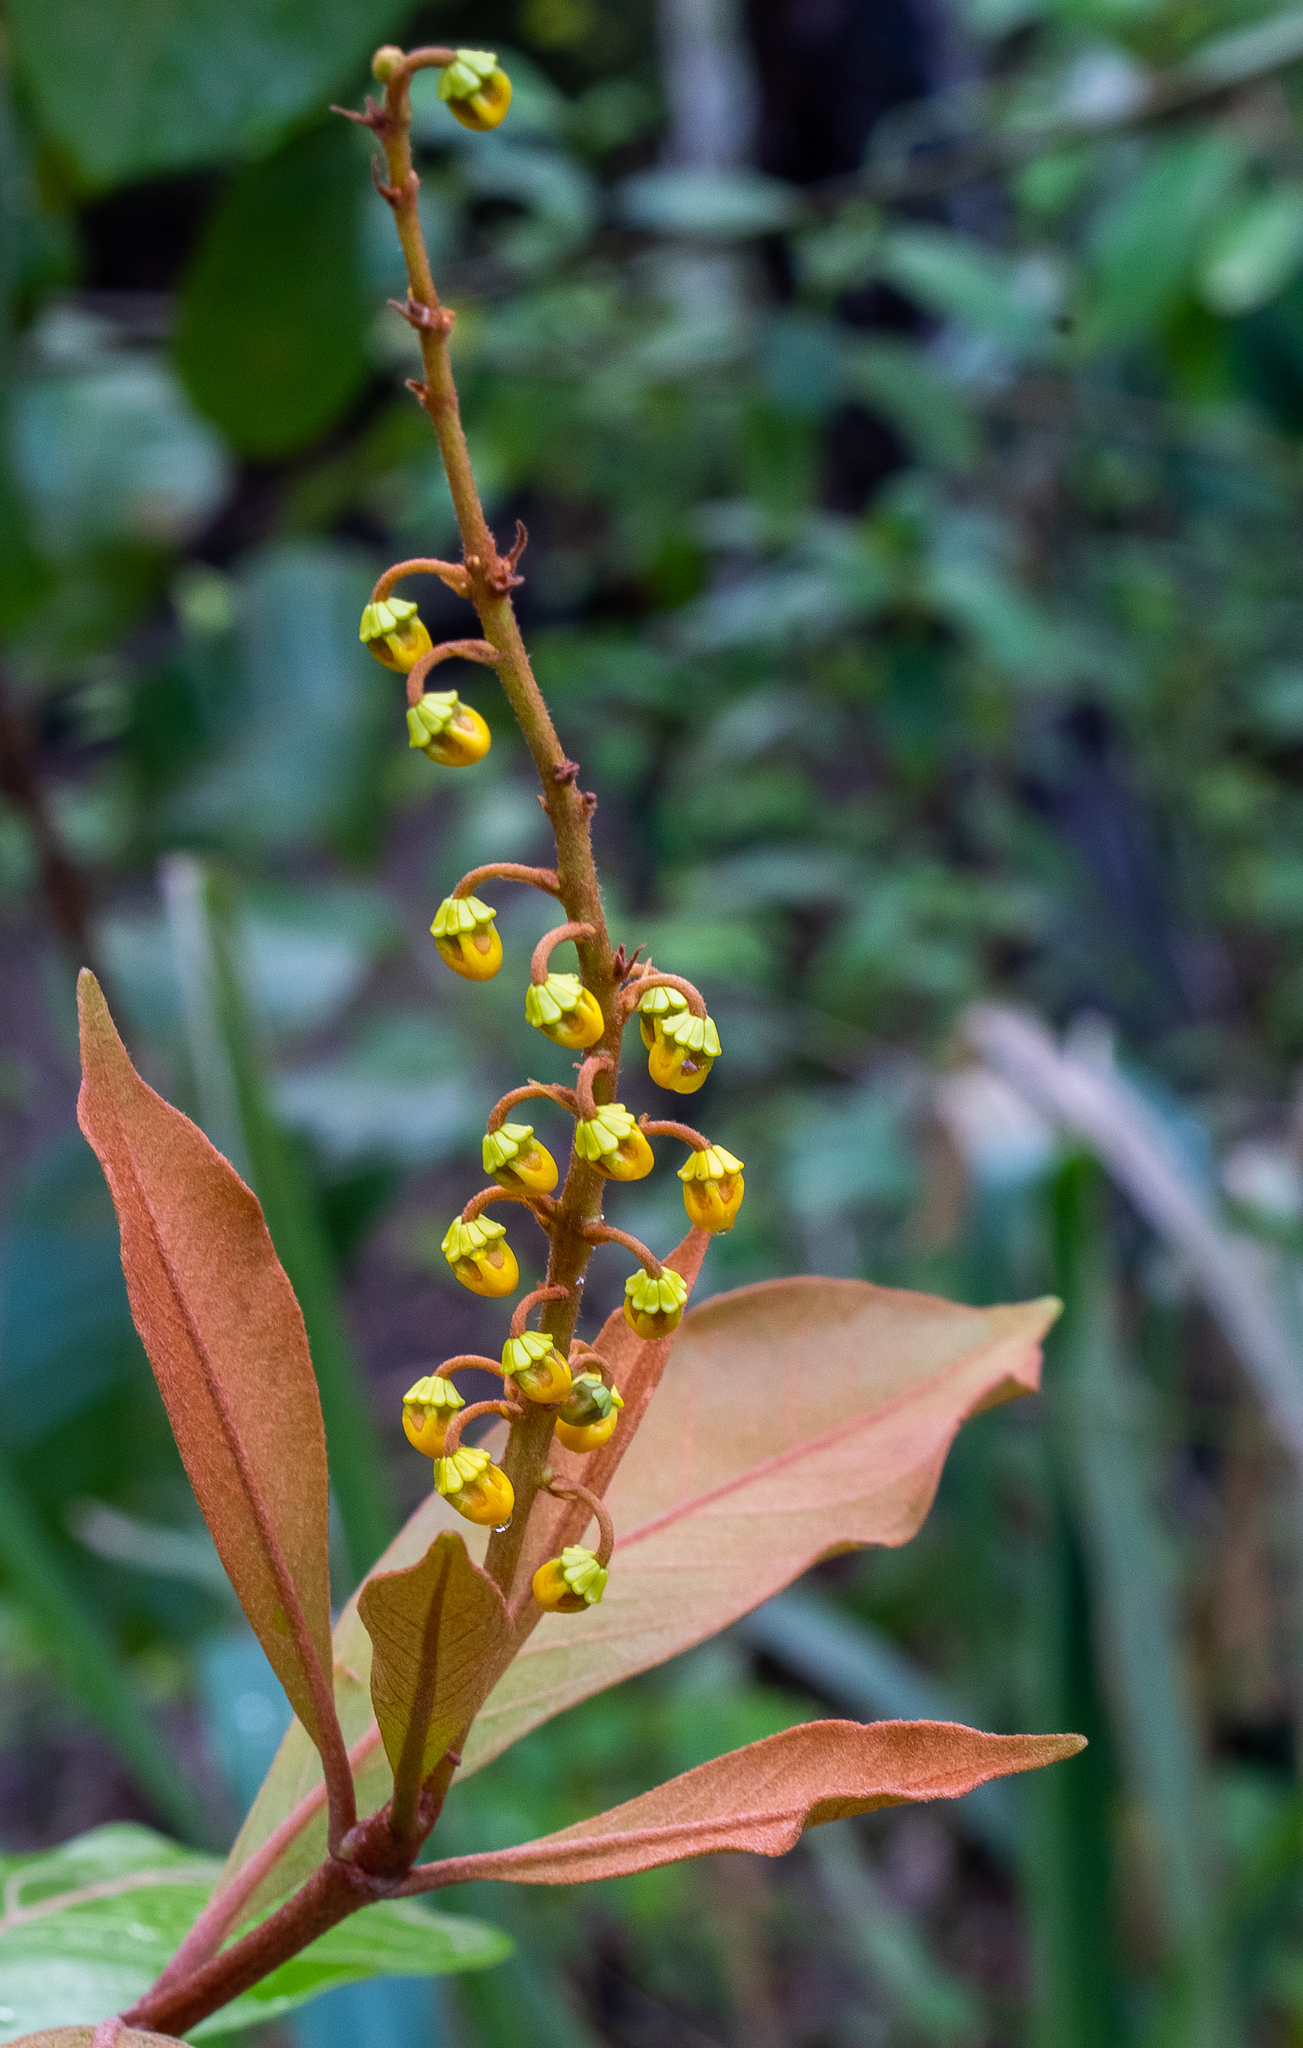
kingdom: Plantae
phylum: Tracheophyta
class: Magnoliopsida
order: Malpighiales
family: Malpighiaceae
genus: Byrsonima
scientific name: Byrsonima crassifolia
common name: Golden spoon
